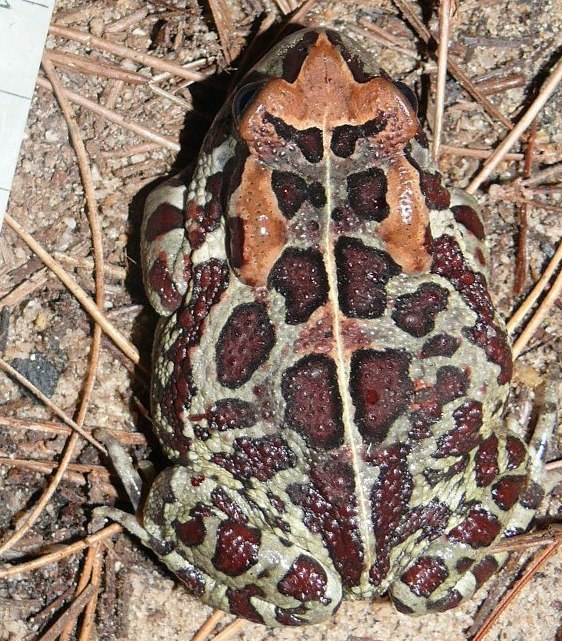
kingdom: Animalia
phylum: Chordata
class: Amphibia
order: Anura
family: Bufonidae
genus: Sclerophrys
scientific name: Sclerophrys pantherina
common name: Panther toad
